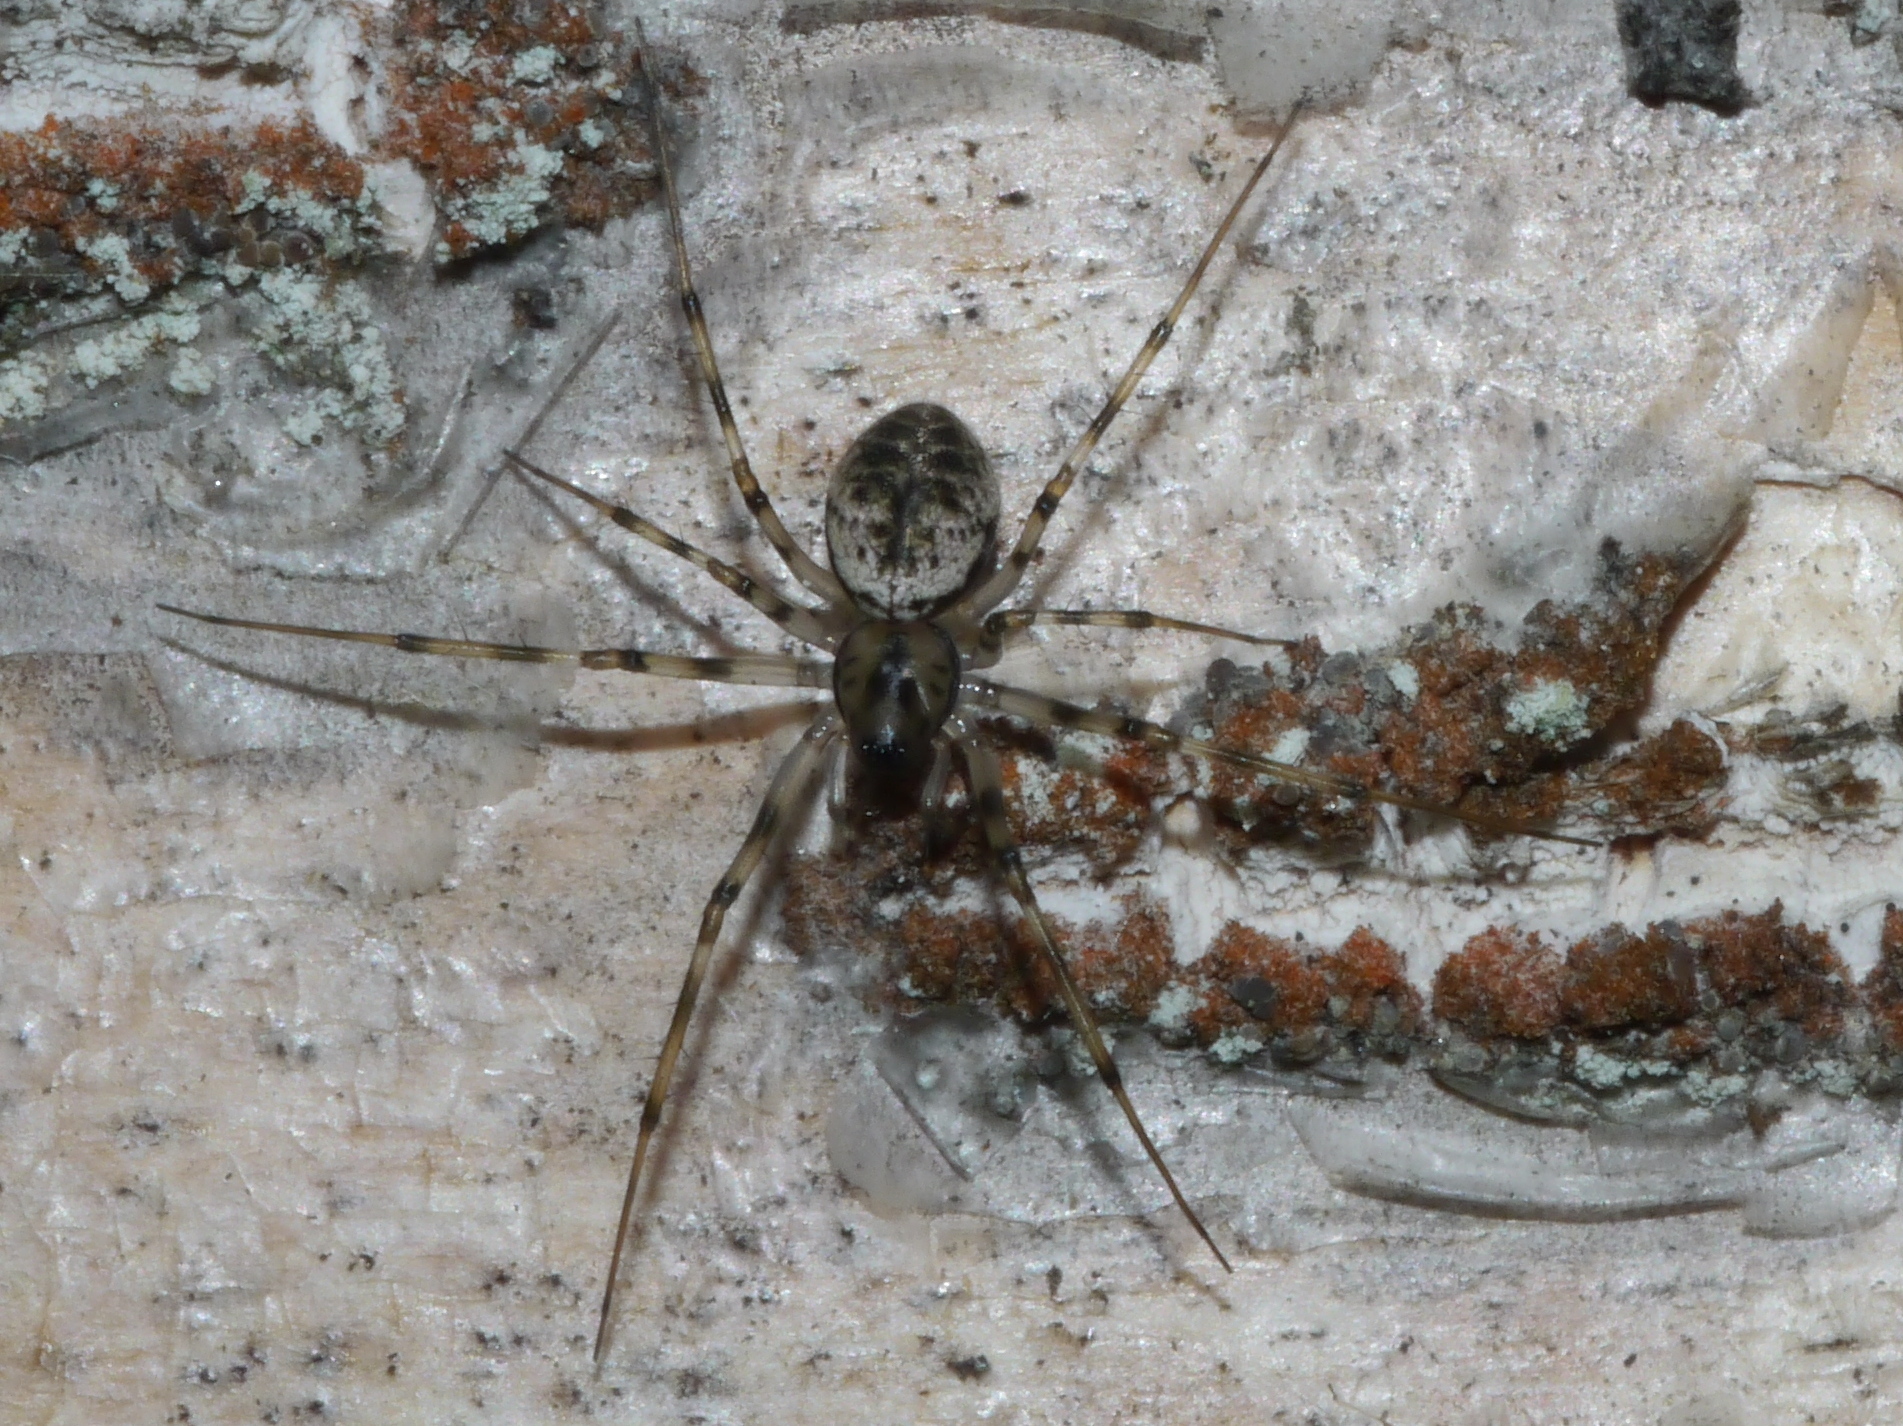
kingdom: Animalia
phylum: Arthropoda
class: Arachnida
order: Araneae
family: Linyphiidae
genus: Drapetisca
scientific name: Drapetisca alteranda
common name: Northern long-toothed sheetweaver
